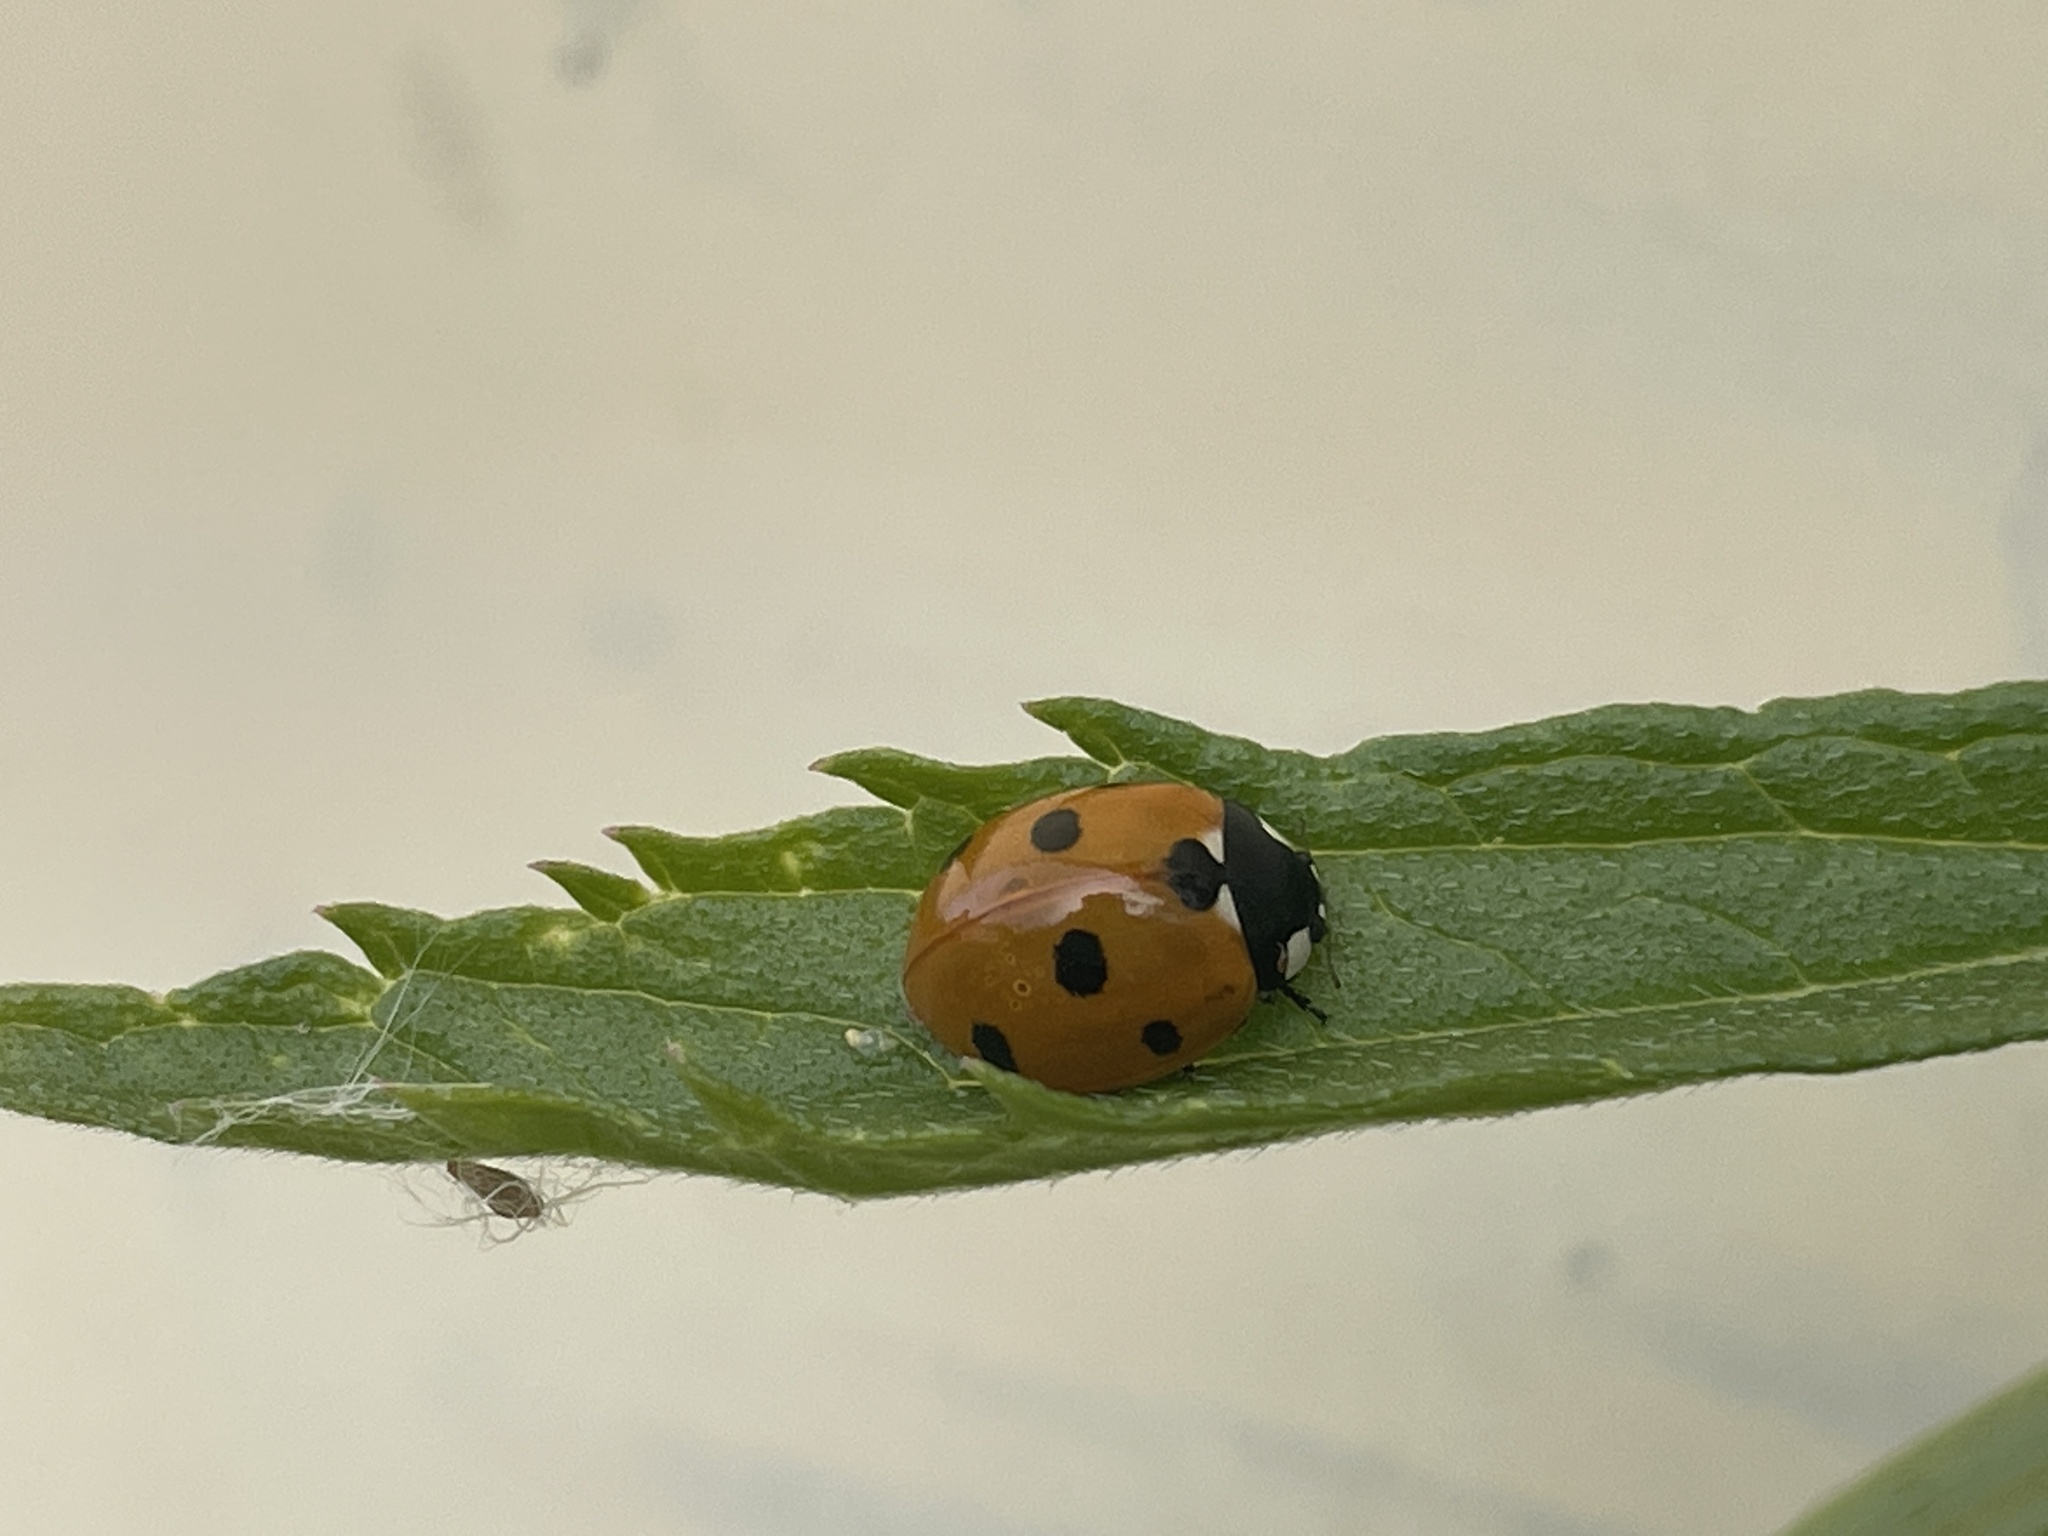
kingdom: Animalia
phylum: Arthropoda
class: Insecta
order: Coleoptera
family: Coccinellidae
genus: Coccinella
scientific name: Coccinella septempunctata
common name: Sevenspotted lady beetle
